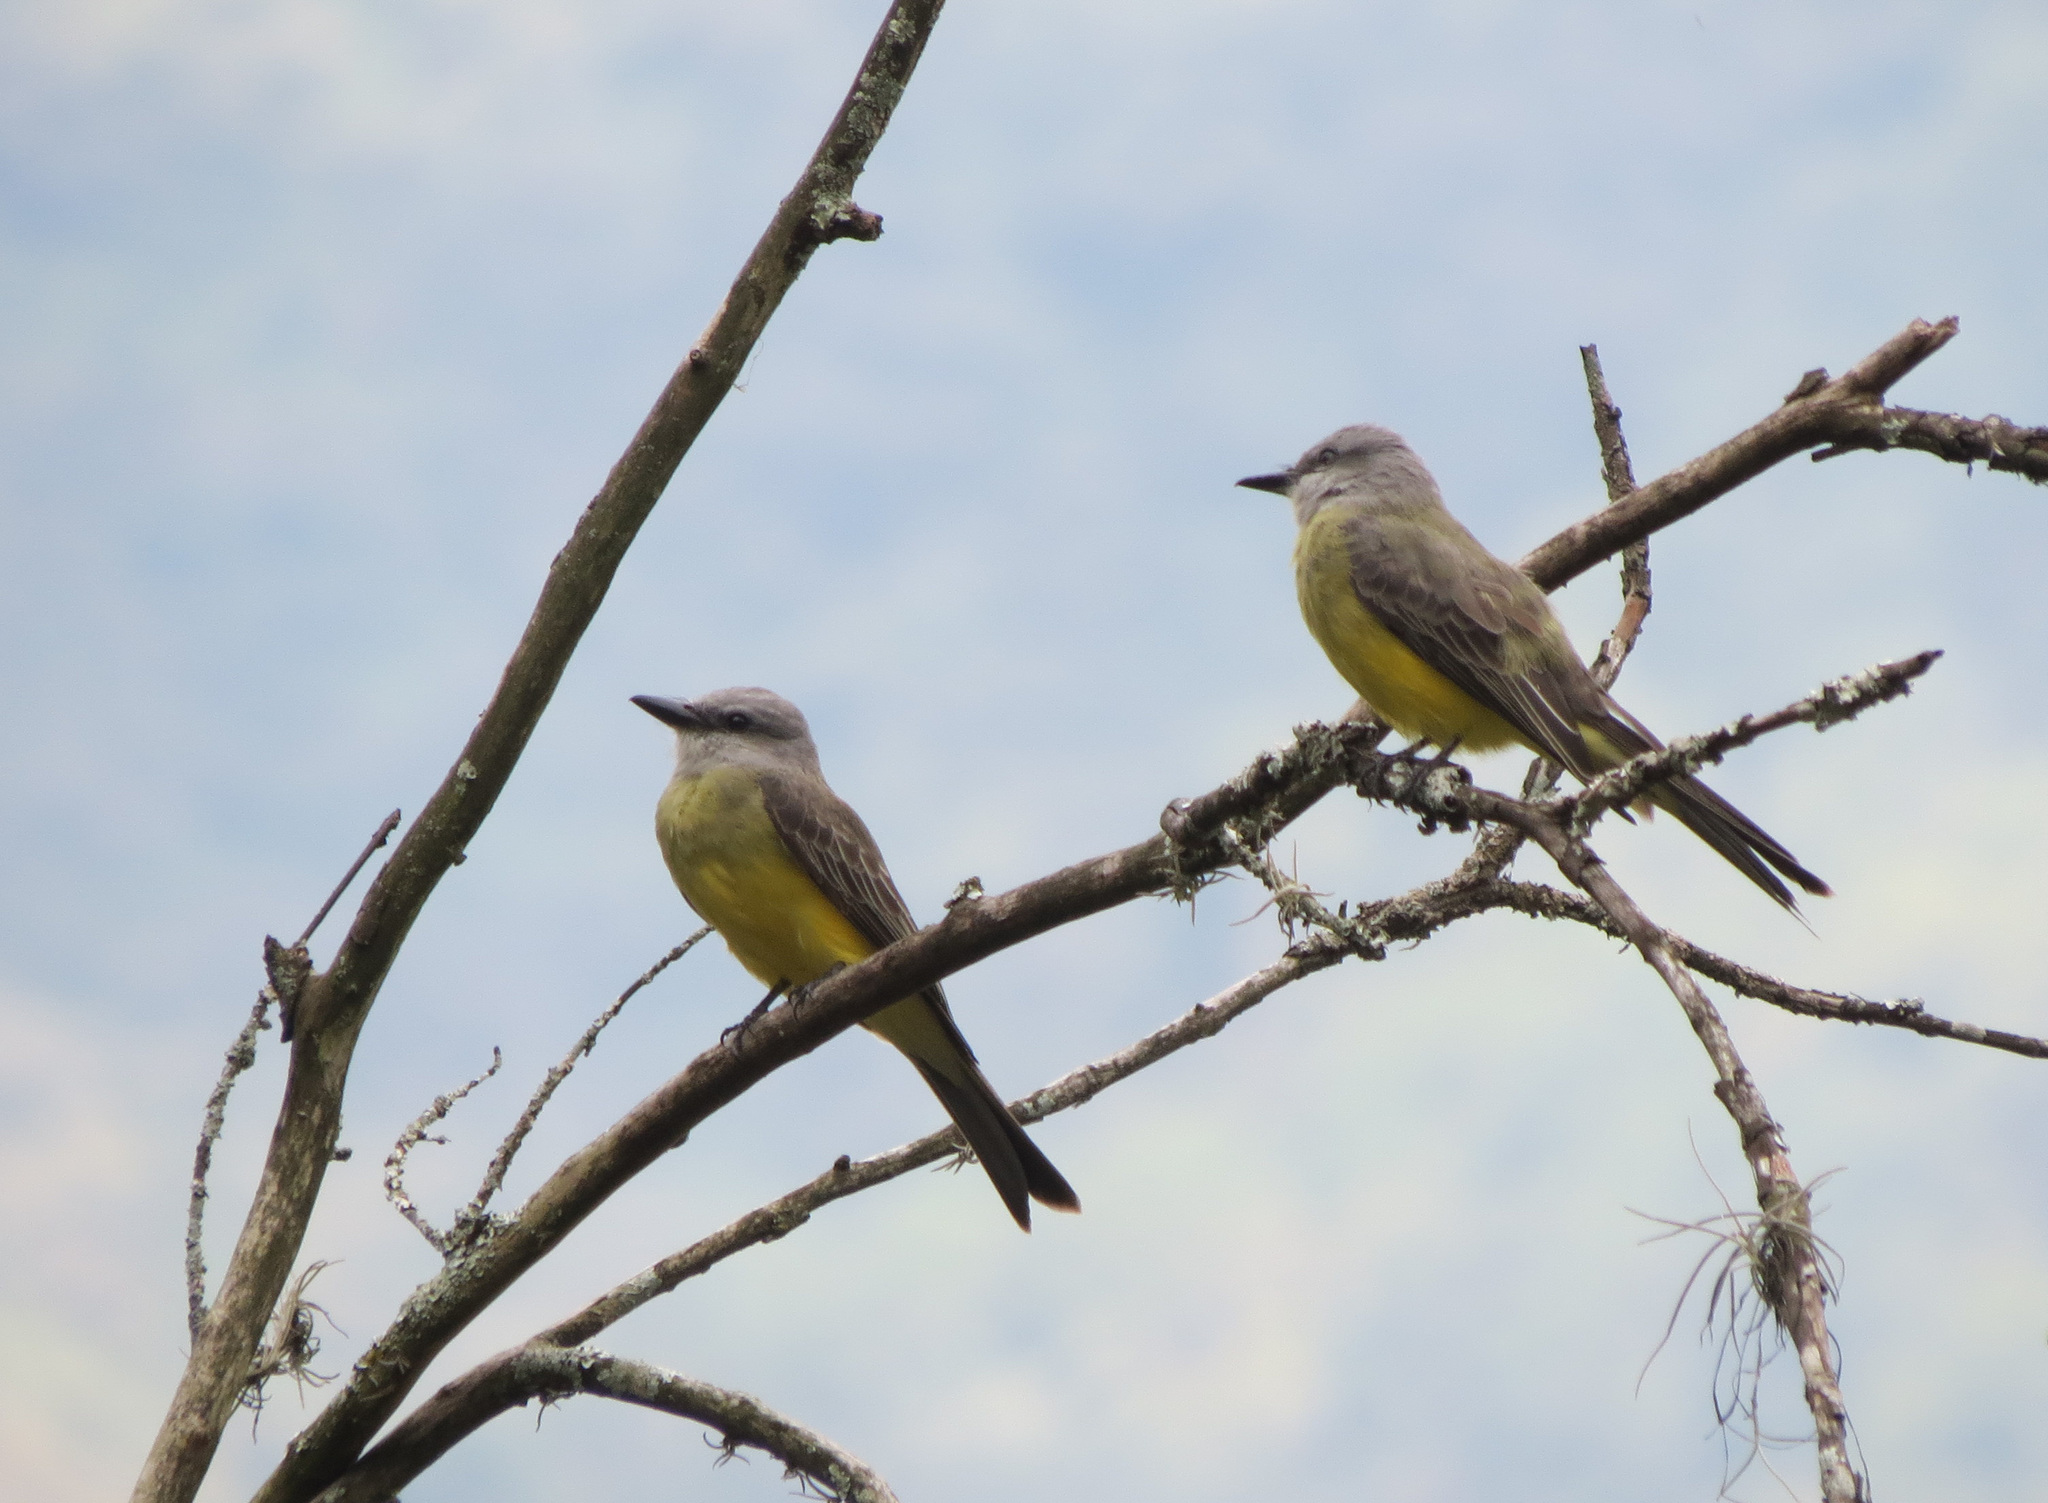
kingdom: Animalia
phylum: Chordata
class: Aves
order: Passeriformes
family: Tyrannidae
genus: Tyrannus
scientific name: Tyrannus melancholicus
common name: Tropical kingbird
